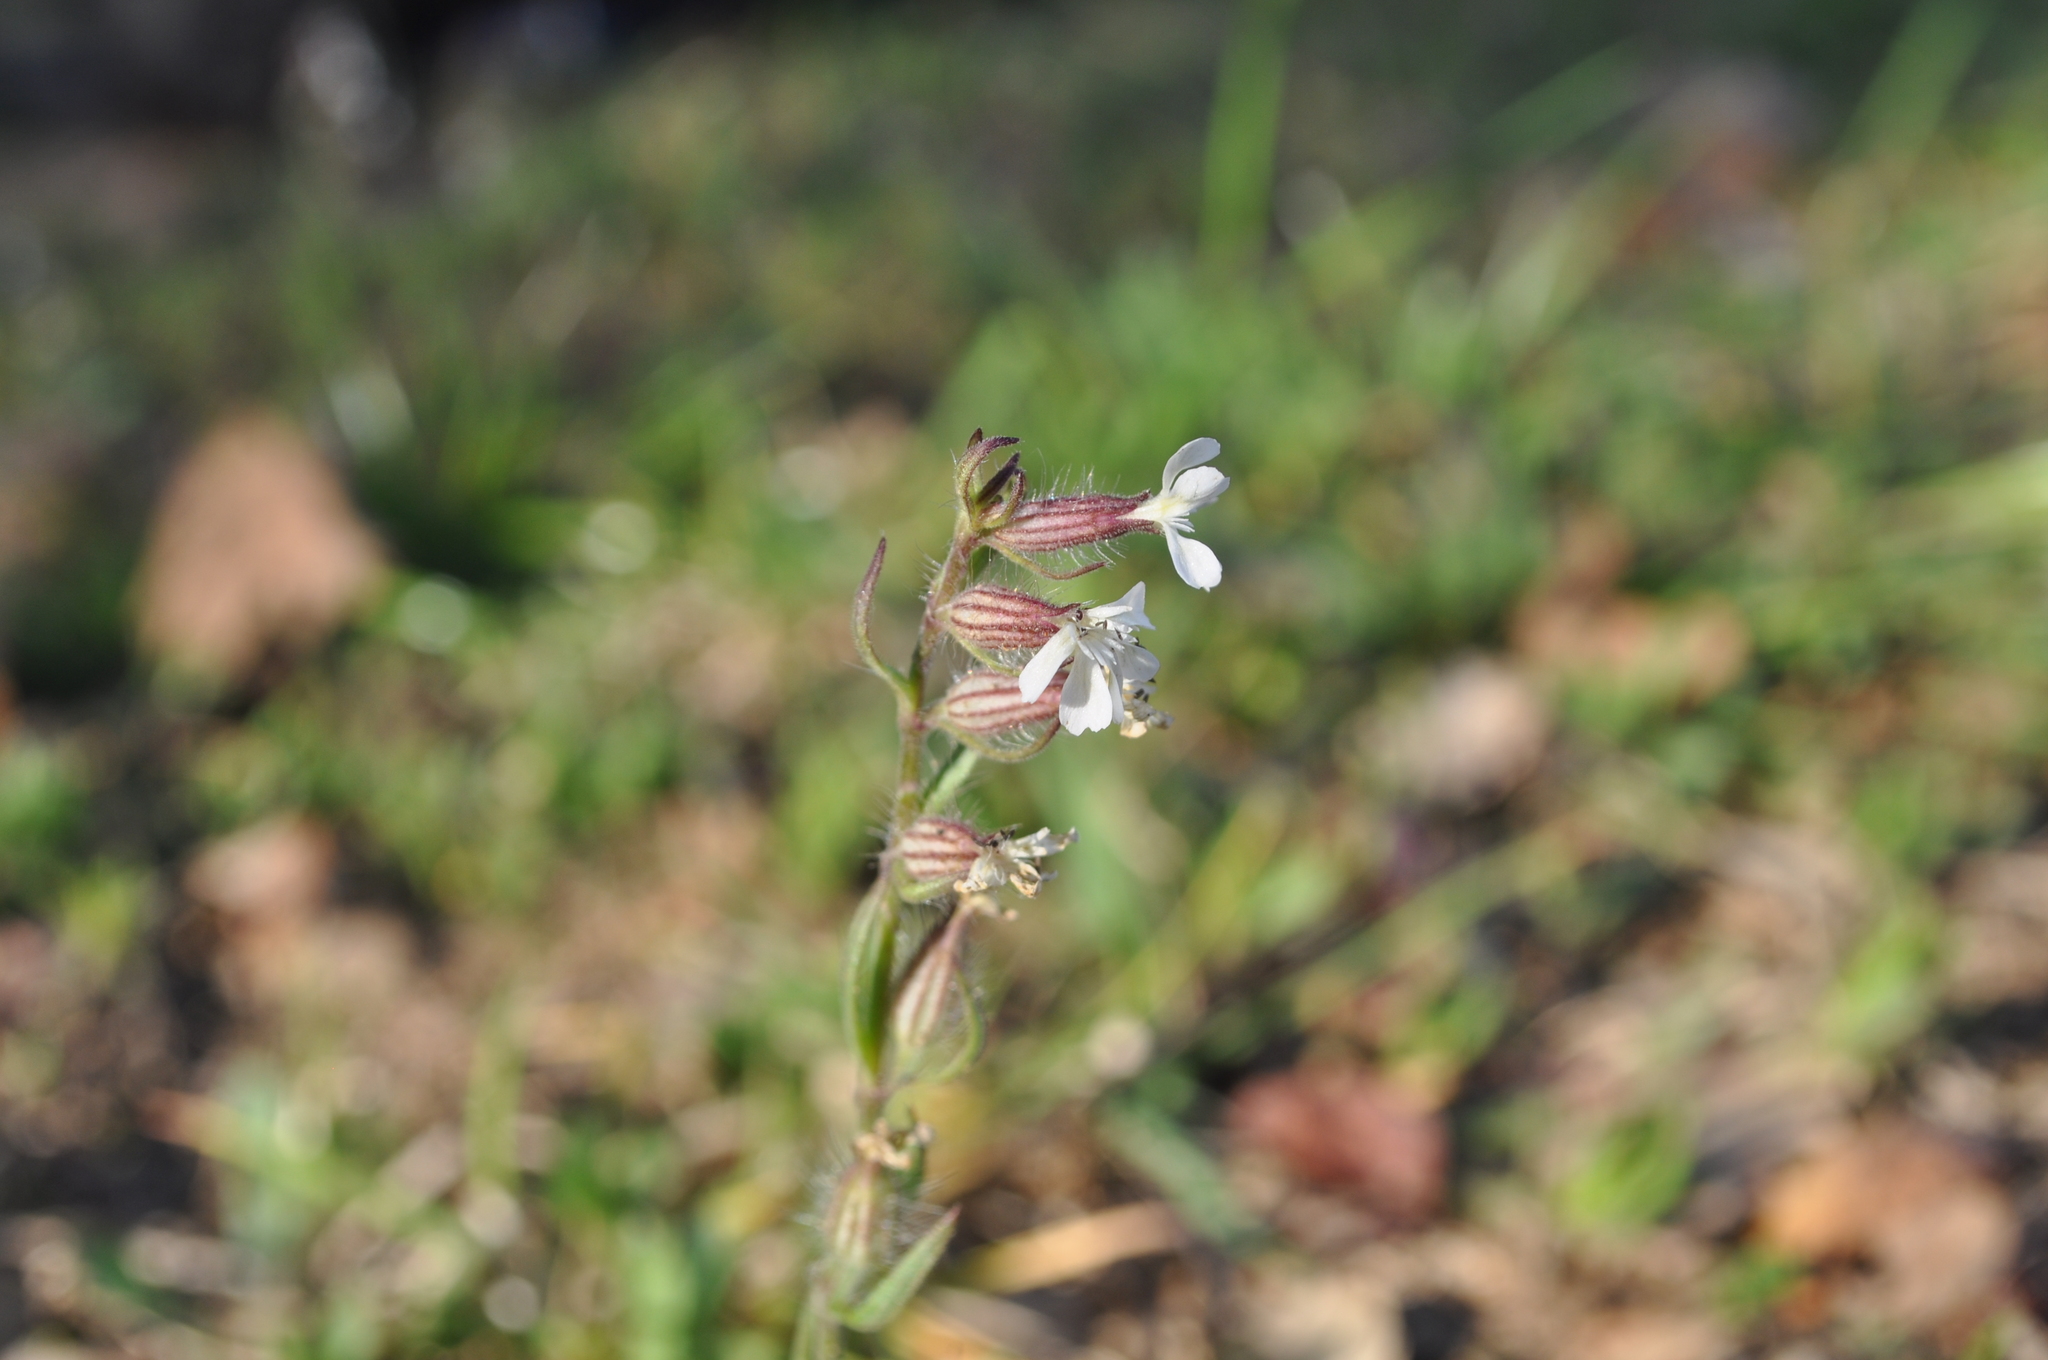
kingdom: Plantae
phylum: Tracheophyta
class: Magnoliopsida
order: Caryophyllales
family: Caryophyllaceae
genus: Silene
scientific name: Silene gallica
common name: Small-flowered catchfly
